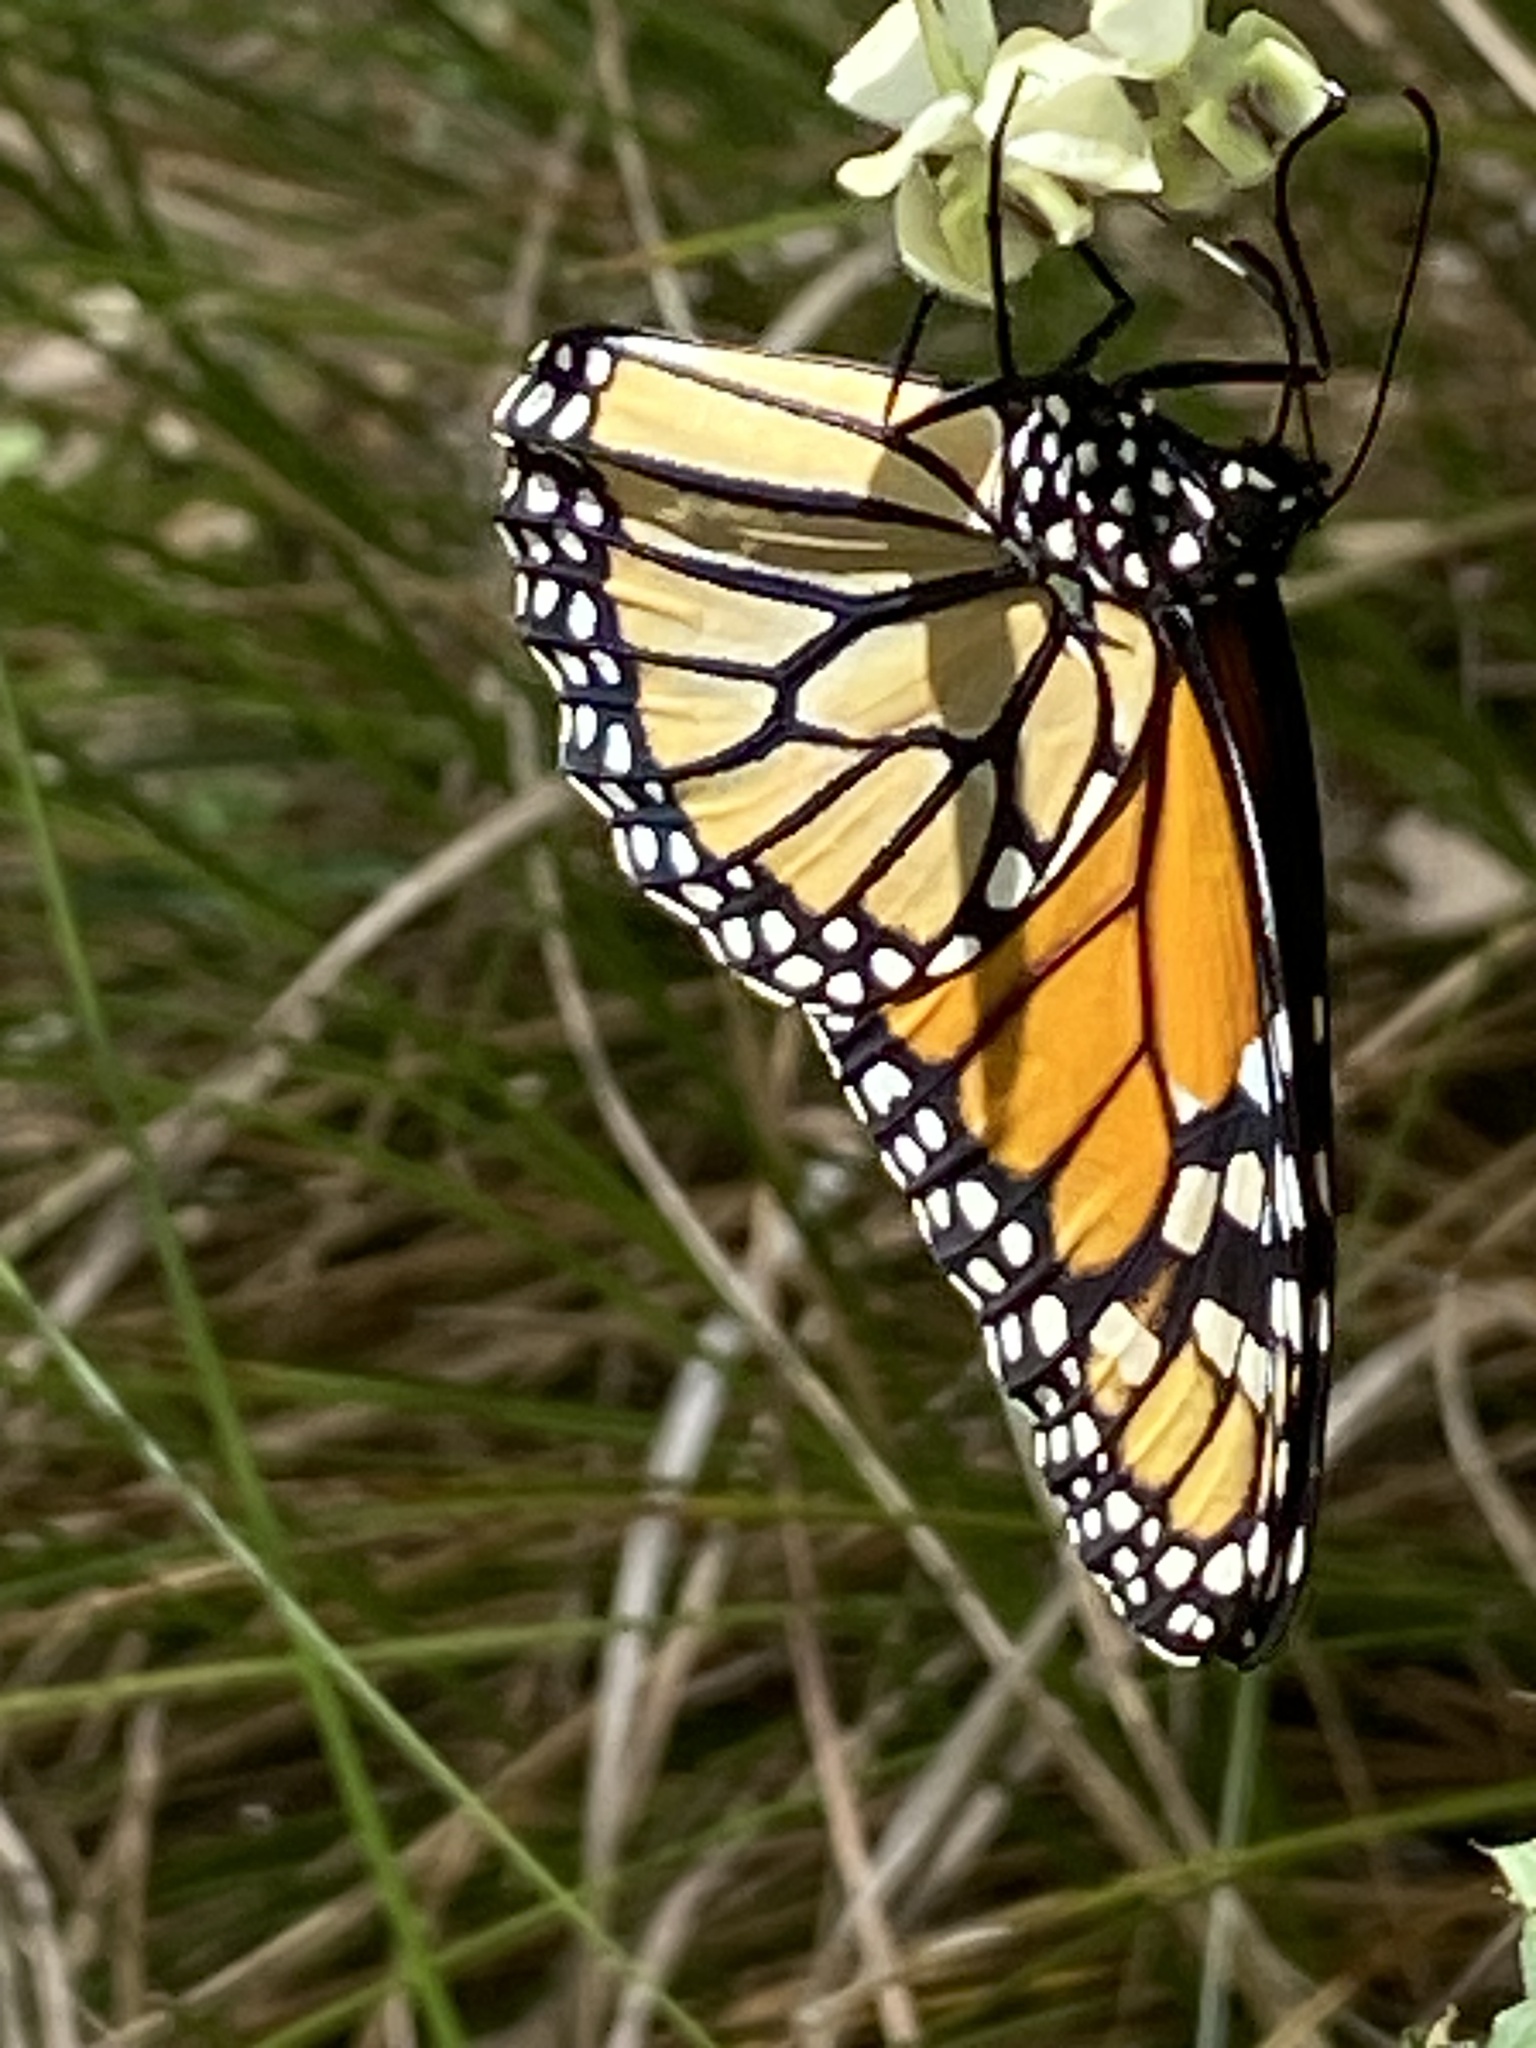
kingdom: Animalia
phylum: Arthropoda
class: Insecta
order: Lepidoptera
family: Nymphalidae
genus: Danaus
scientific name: Danaus plexippus
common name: Monarch
